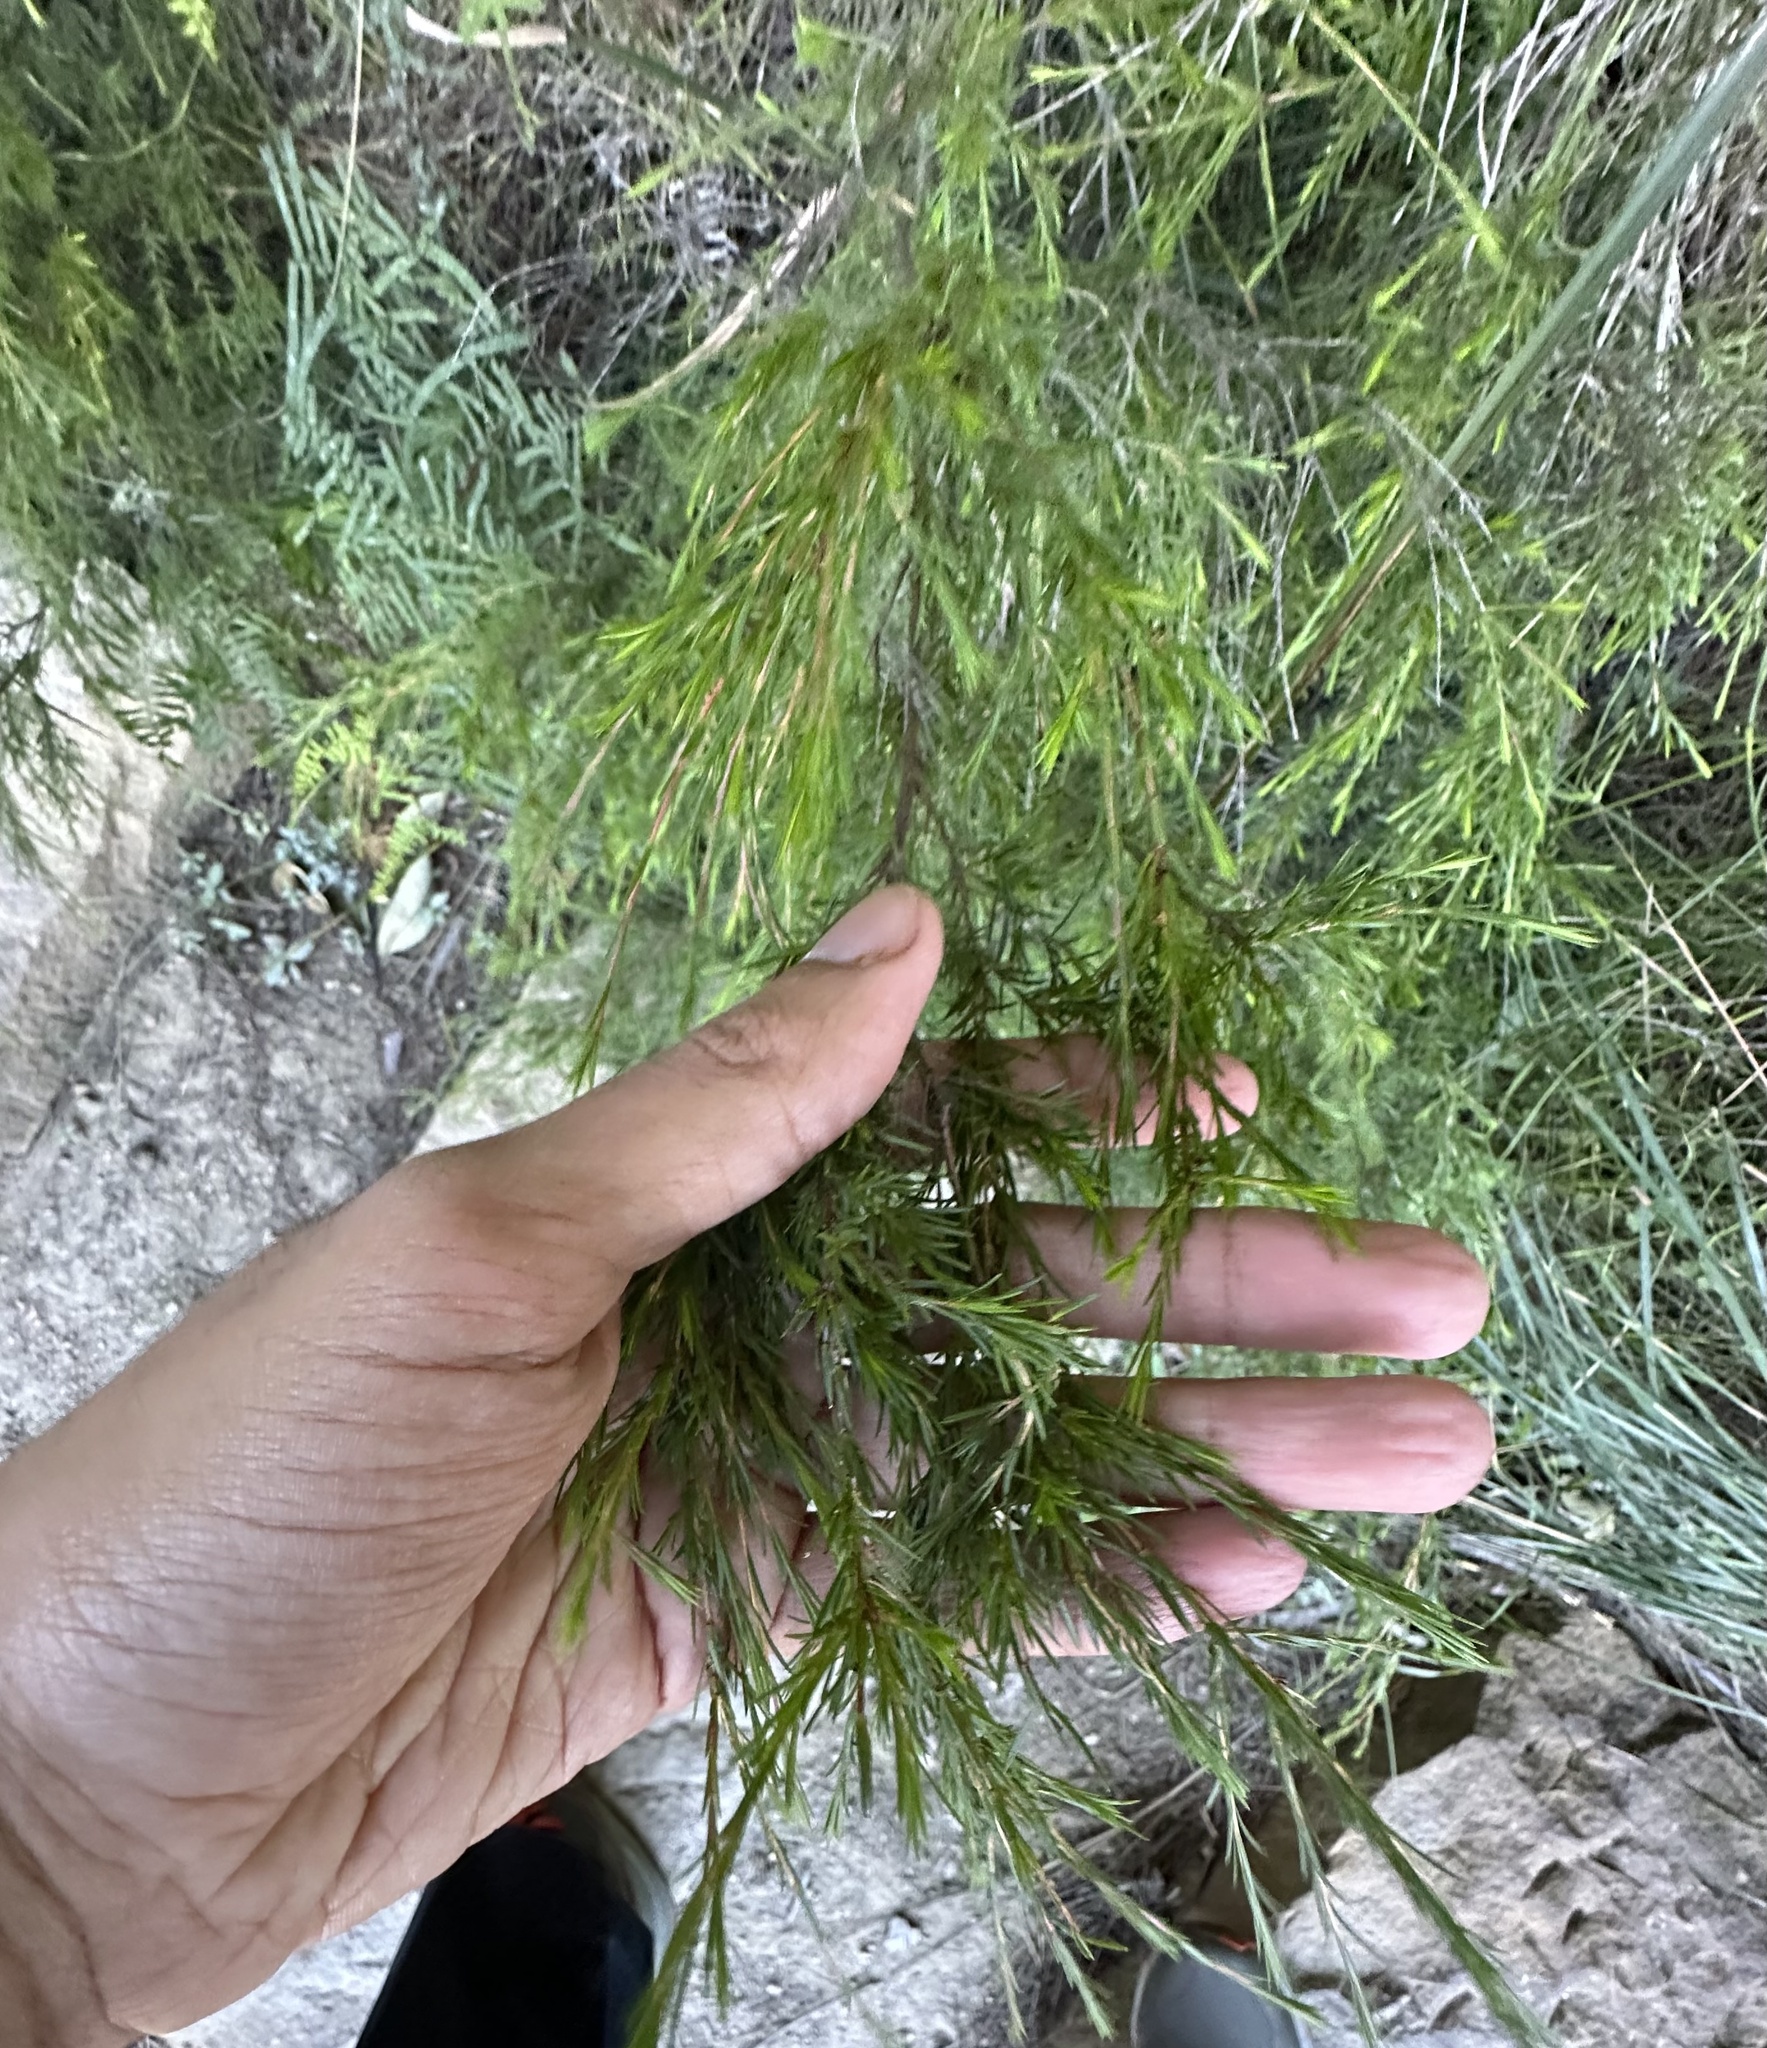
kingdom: Plantae
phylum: Tracheophyta
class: Magnoliopsida
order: Myrtales
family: Myrtaceae
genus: Baeckea
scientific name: Baeckea linifolia
